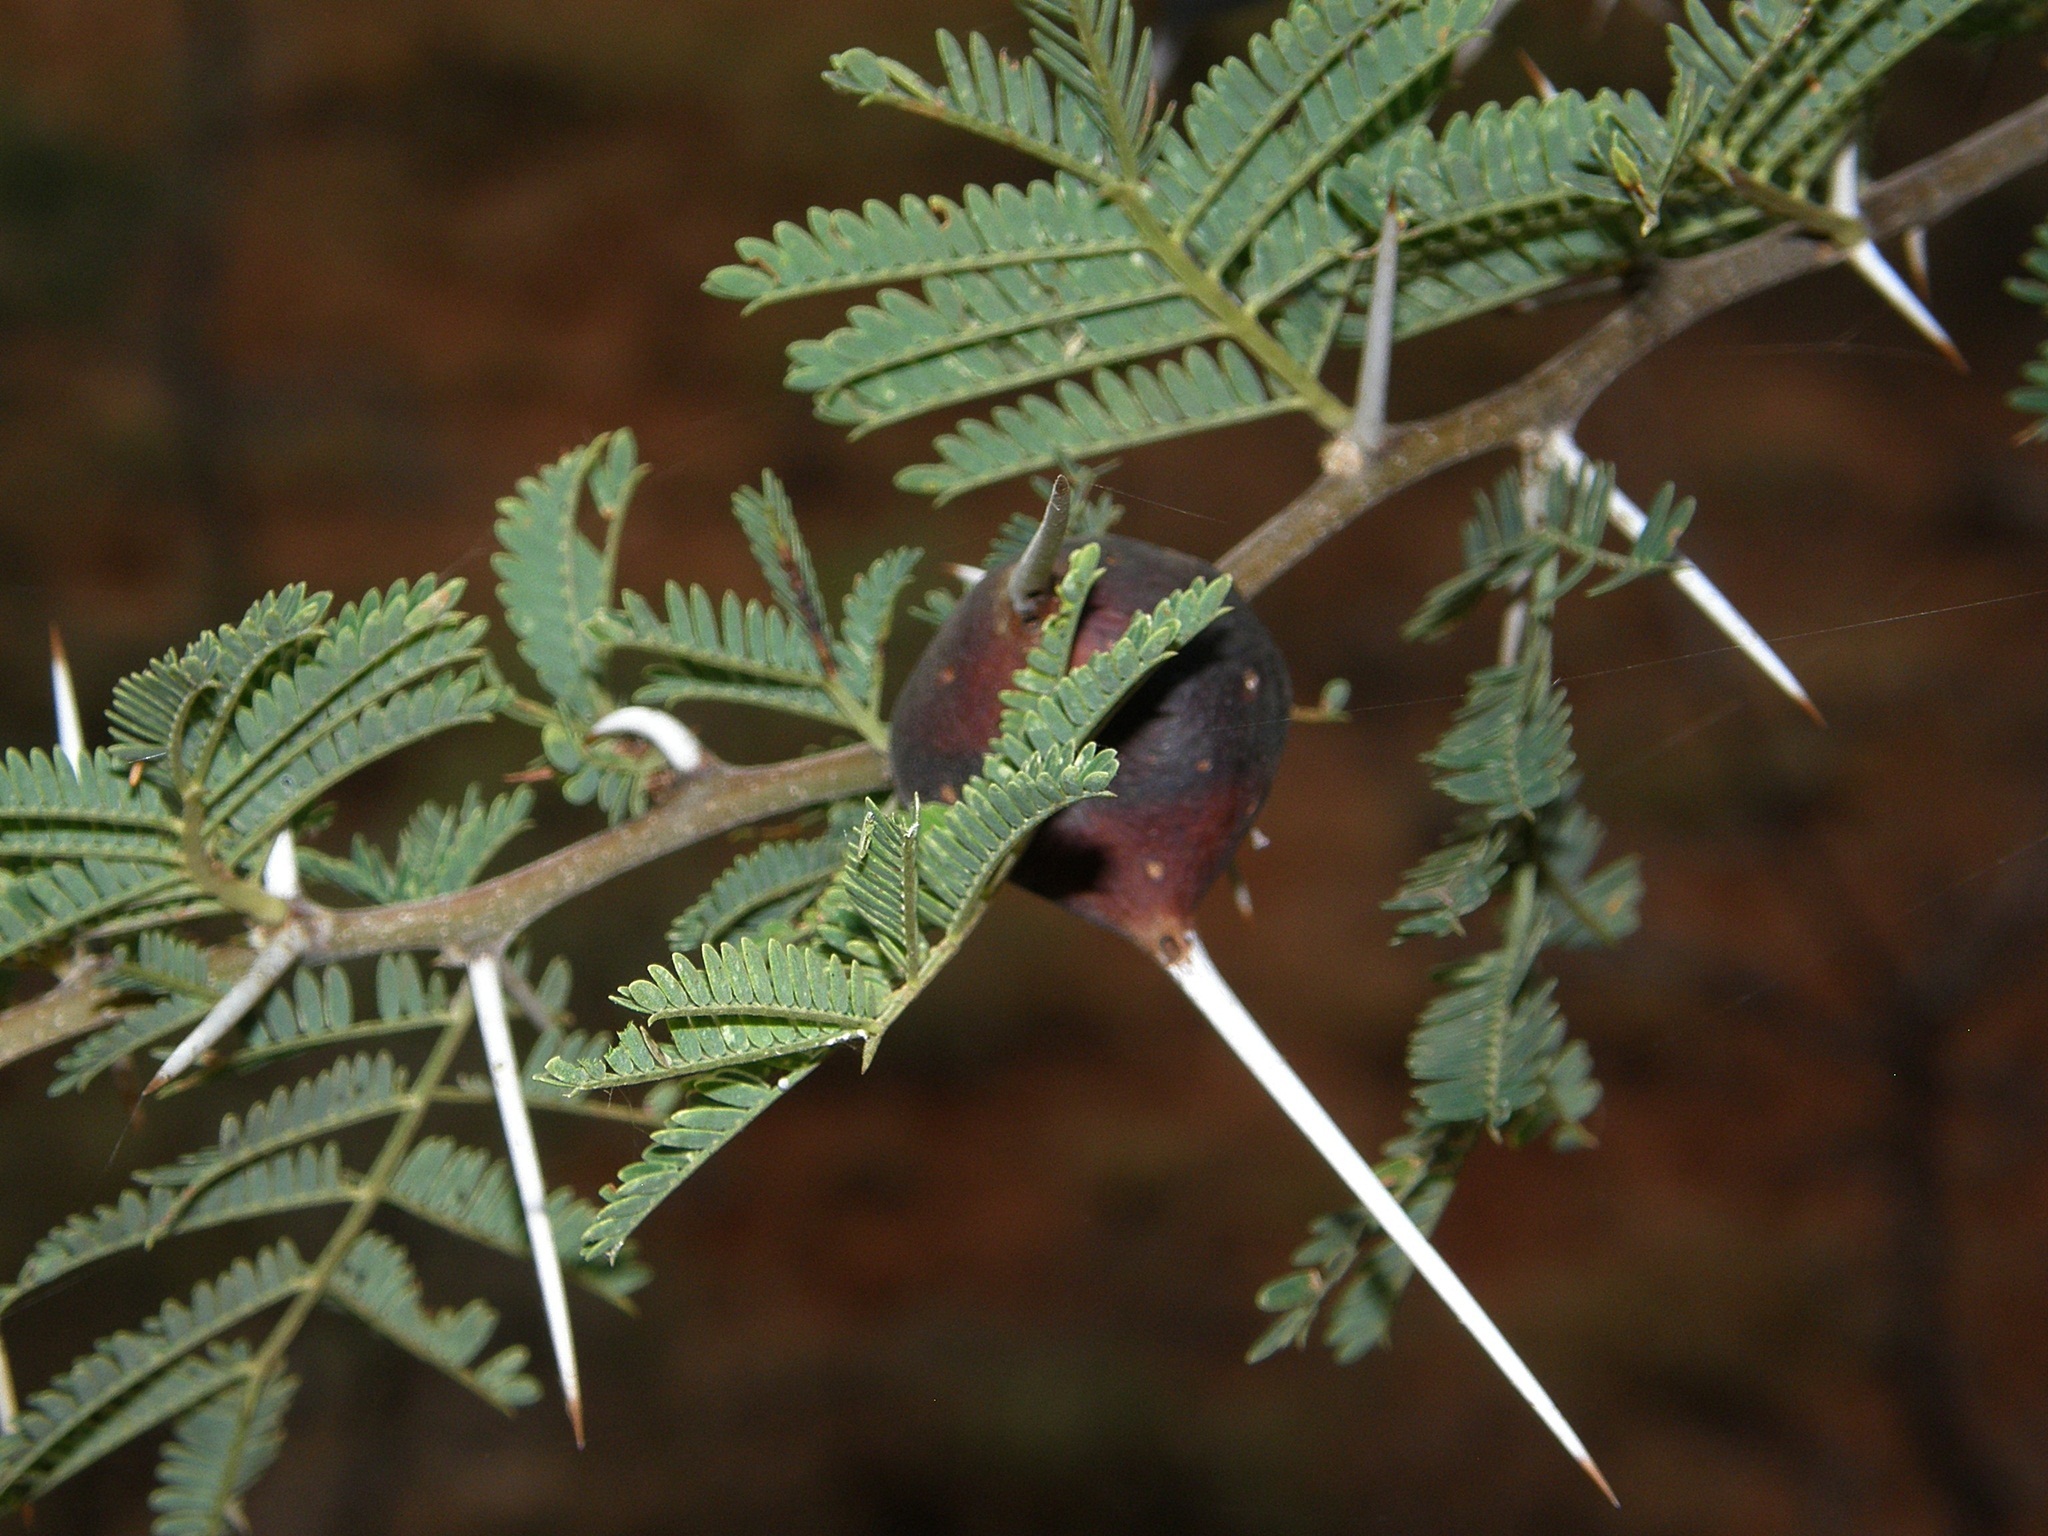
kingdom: Plantae
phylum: Tracheophyta
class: Magnoliopsida
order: Fabales
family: Fabaceae
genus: Vachellia
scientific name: Vachellia drepanolobium
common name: Whistling thorn
